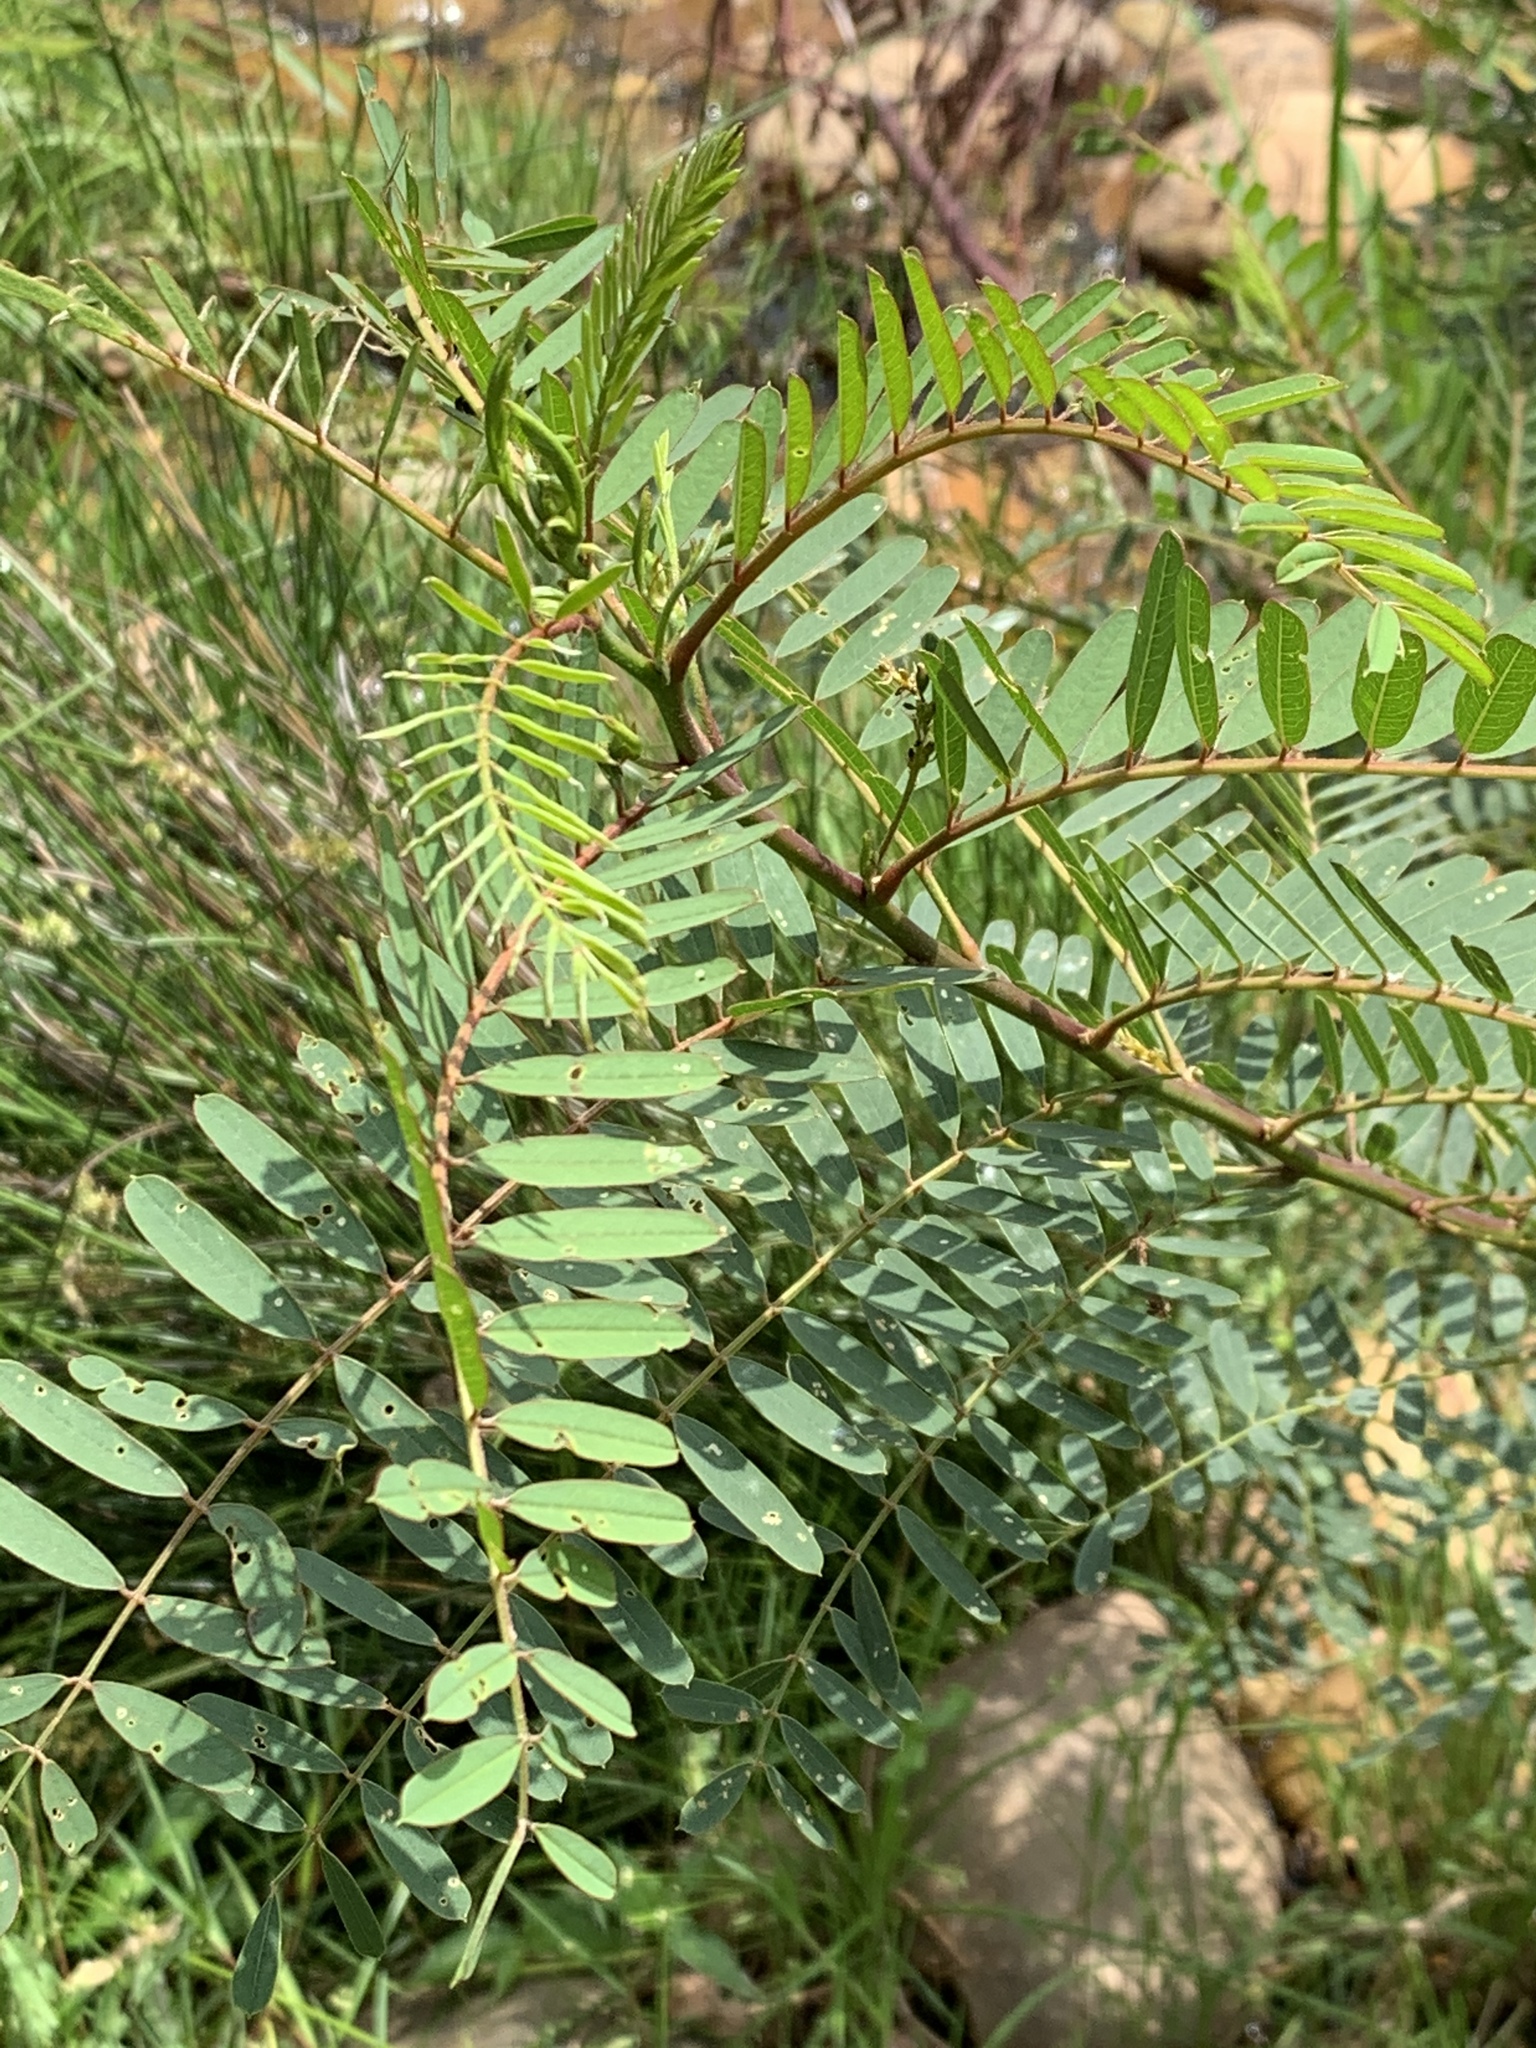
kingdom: Plantae
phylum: Tracheophyta
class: Magnoliopsida
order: Fabales
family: Fabaceae
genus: Sesbania
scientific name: Sesbania punicea
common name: Rattlebox
